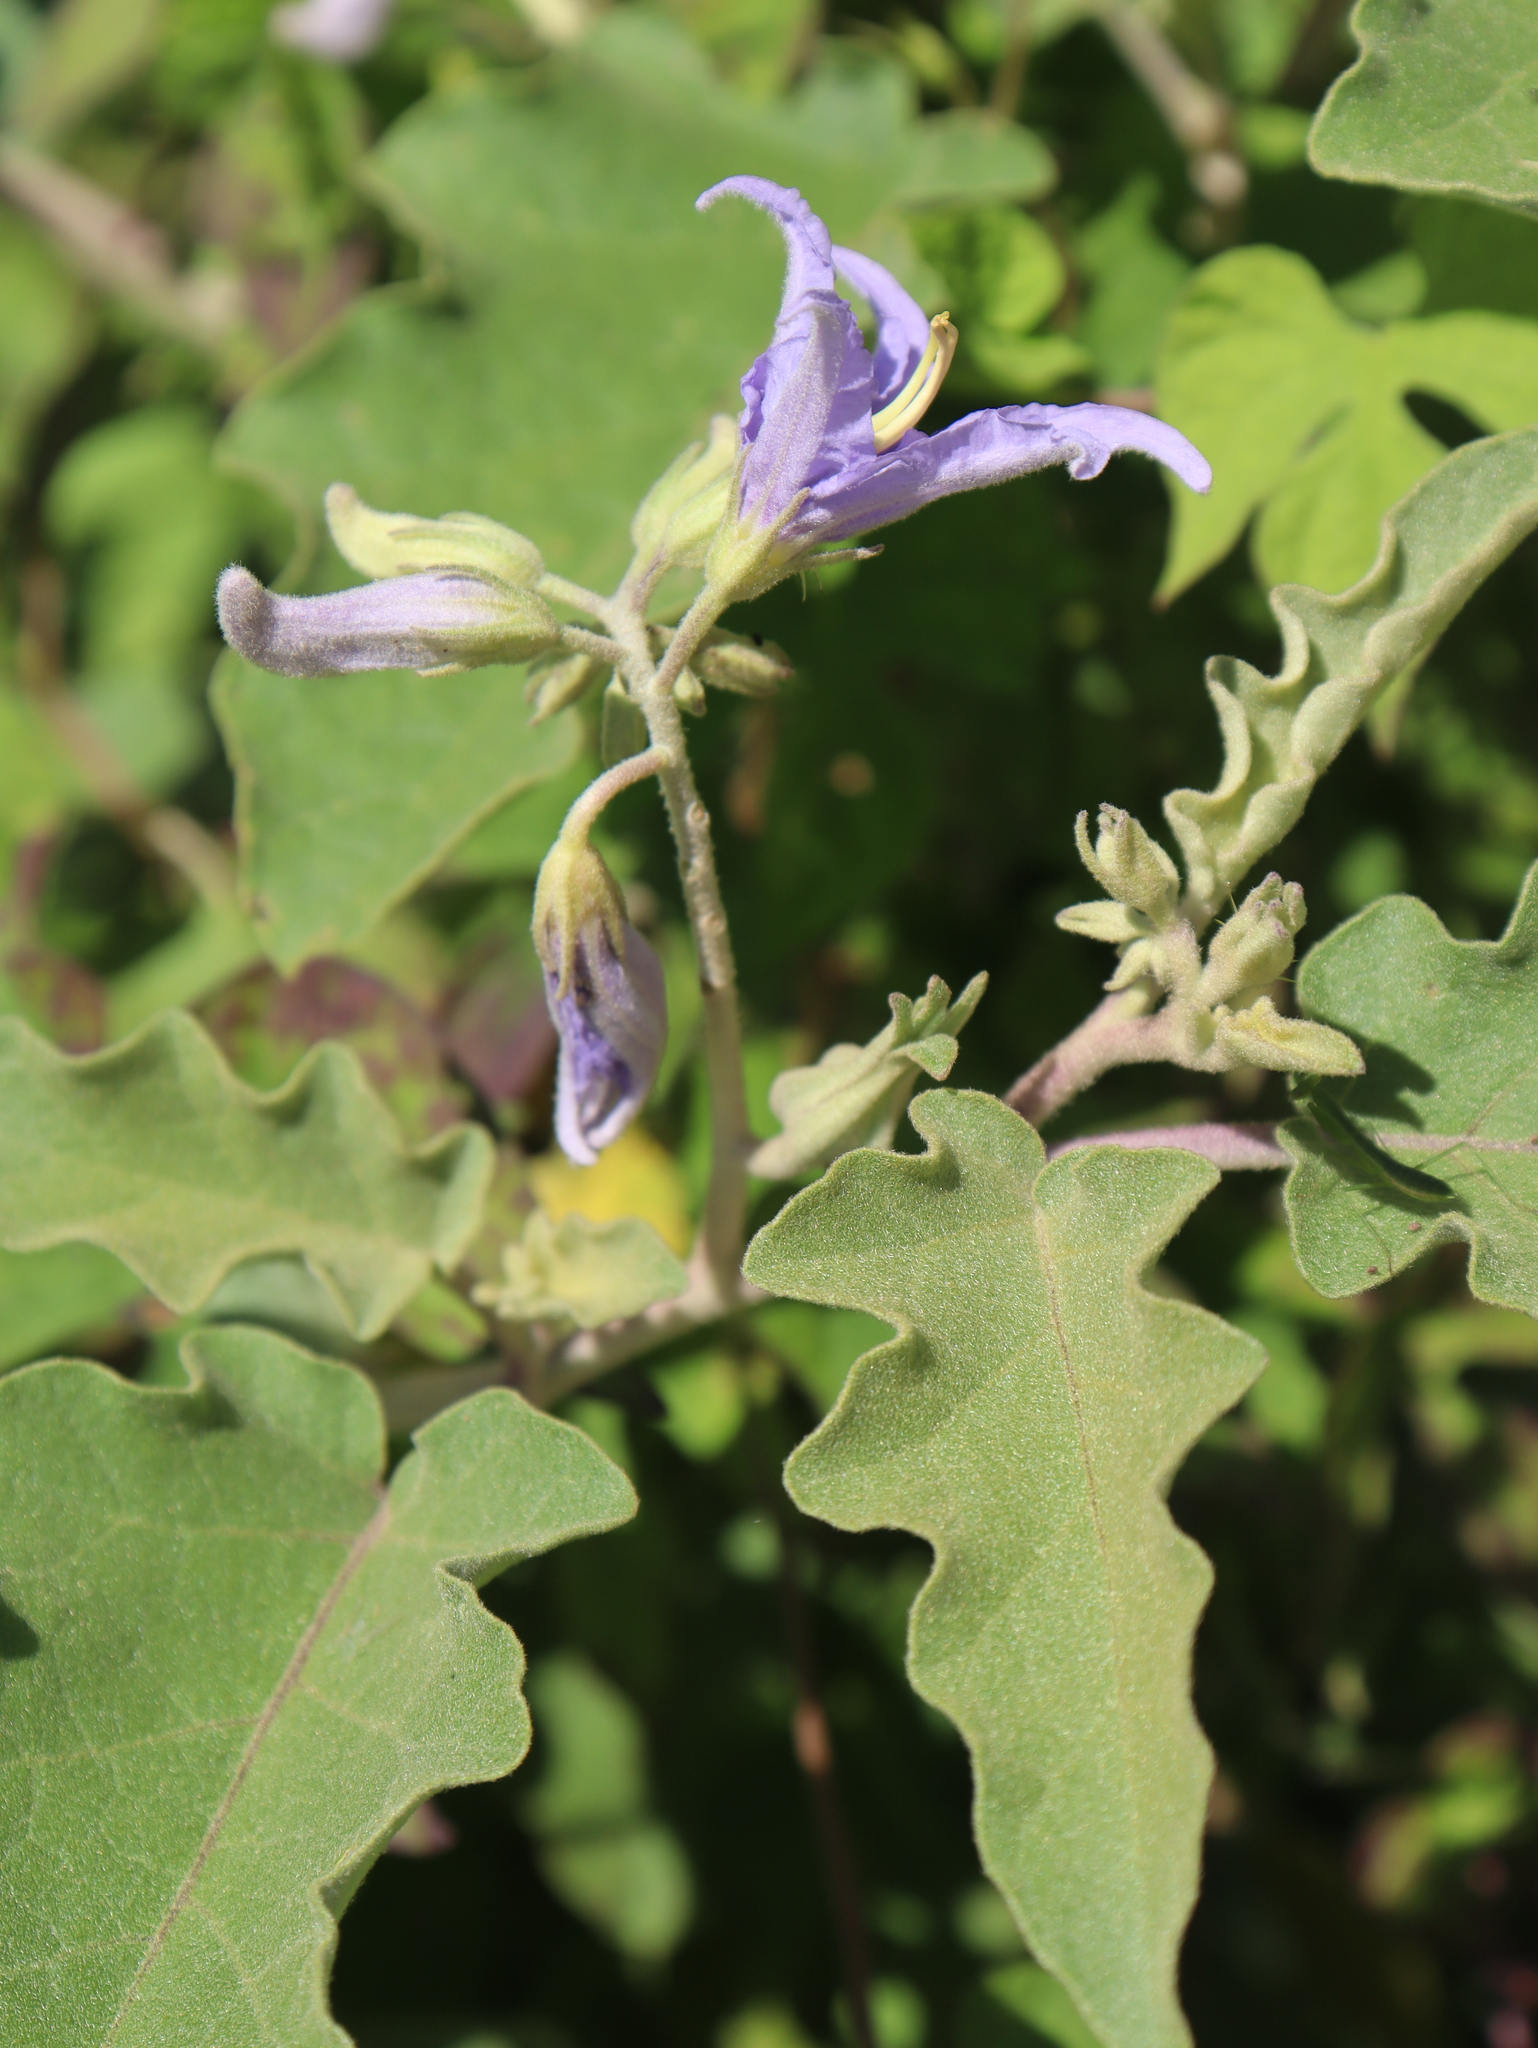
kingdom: Plantae
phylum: Tracheophyta
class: Magnoliopsida
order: Solanales
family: Solanaceae
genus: Solanum
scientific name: Solanum houstonii
